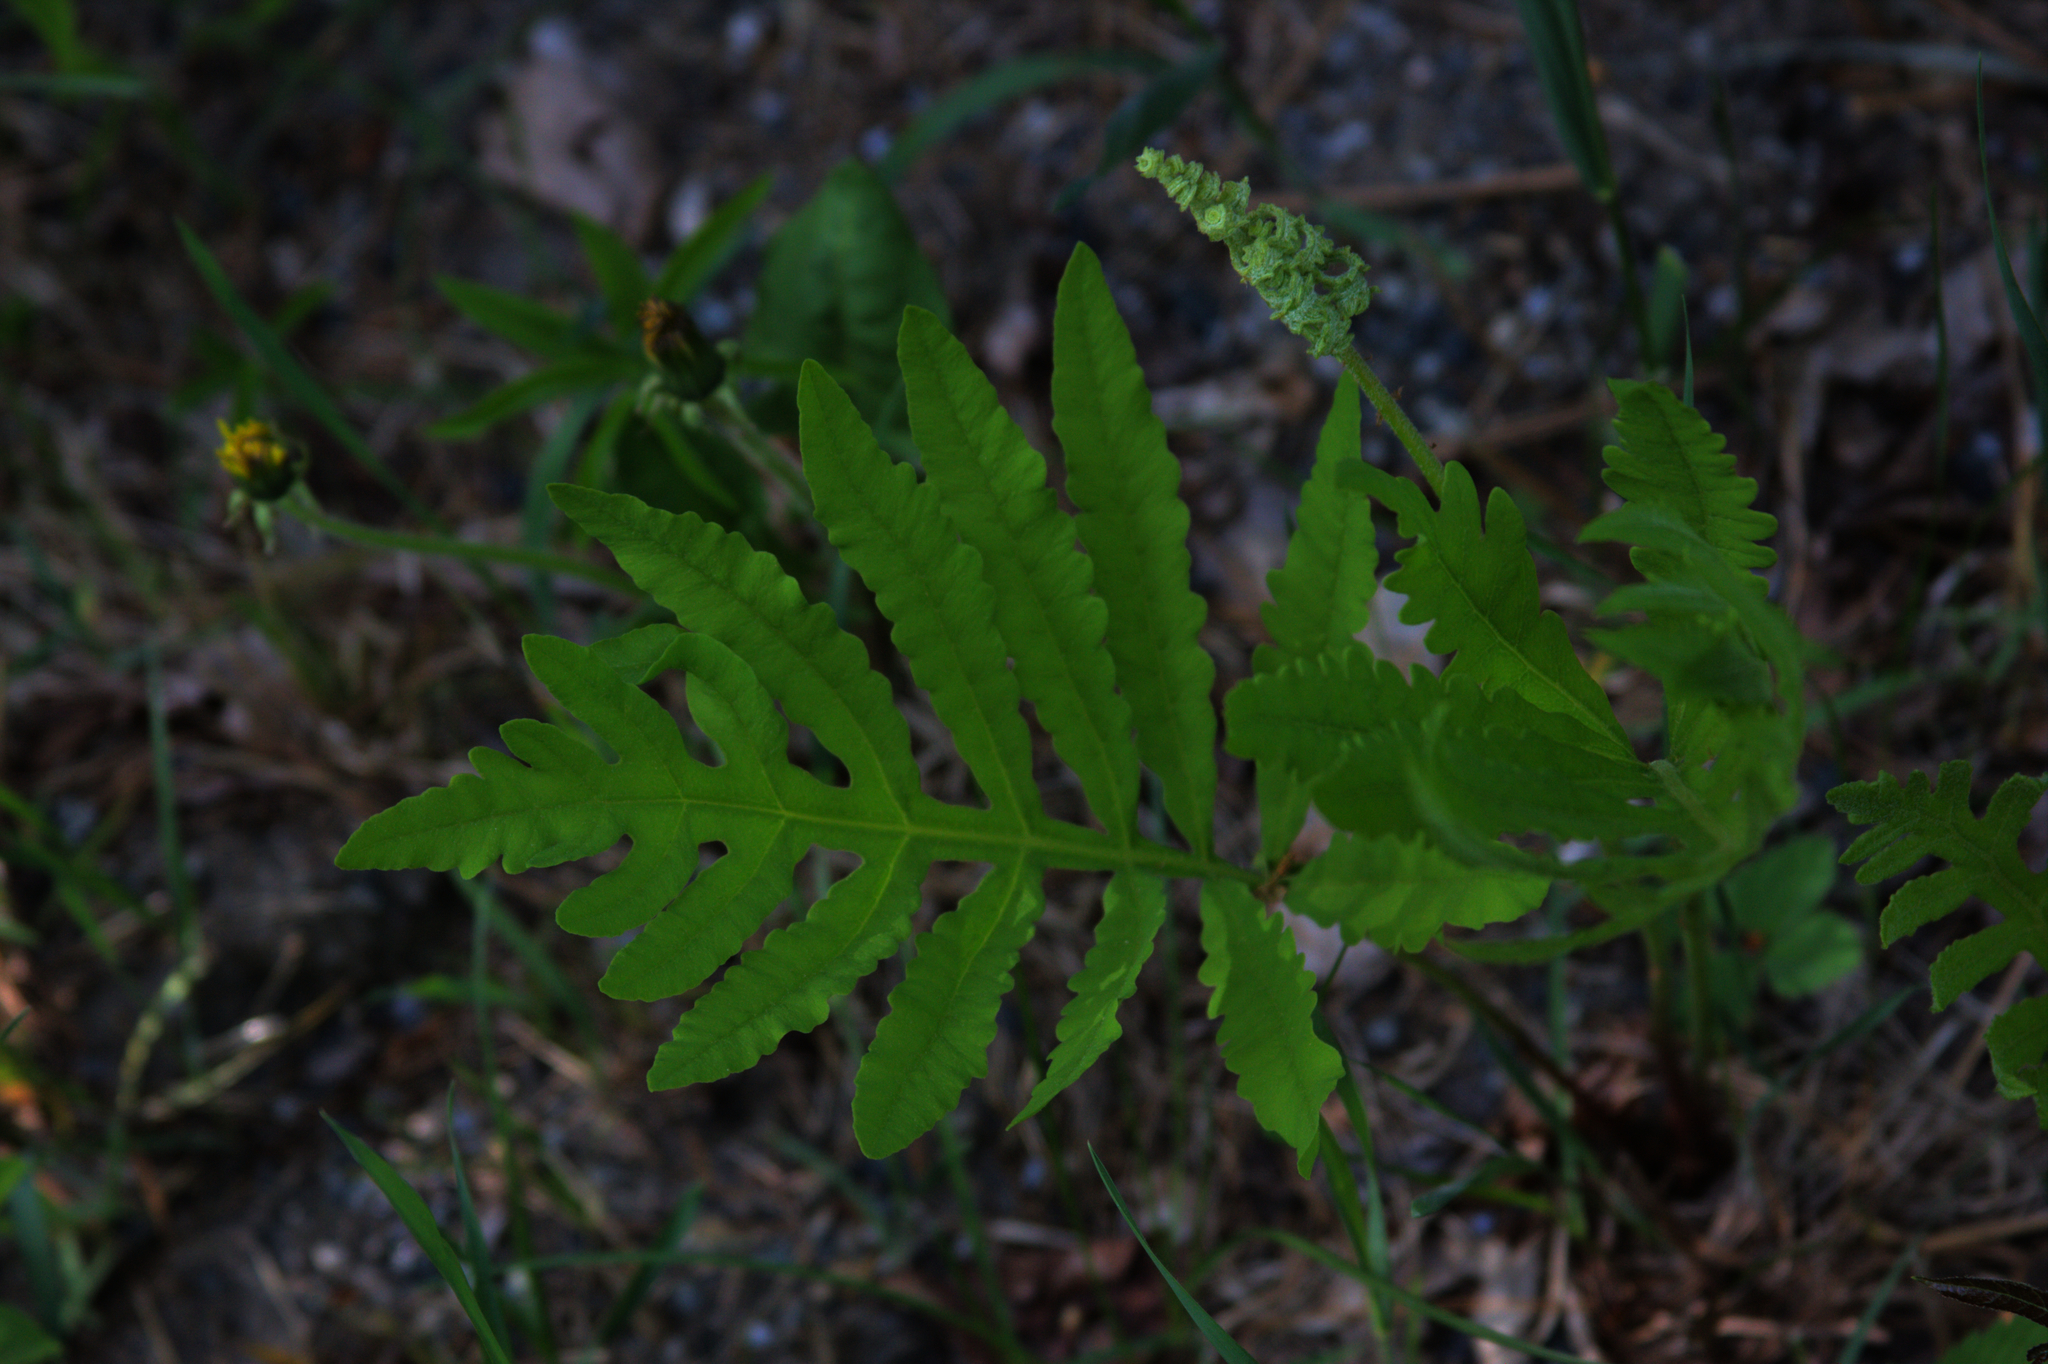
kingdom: Plantae
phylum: Tracheophyta
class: Polypodiopsida
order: Polypodiales
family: Onocleaceae
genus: Onoclea
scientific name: Onoclea sensibilis
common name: Sensitive fern
